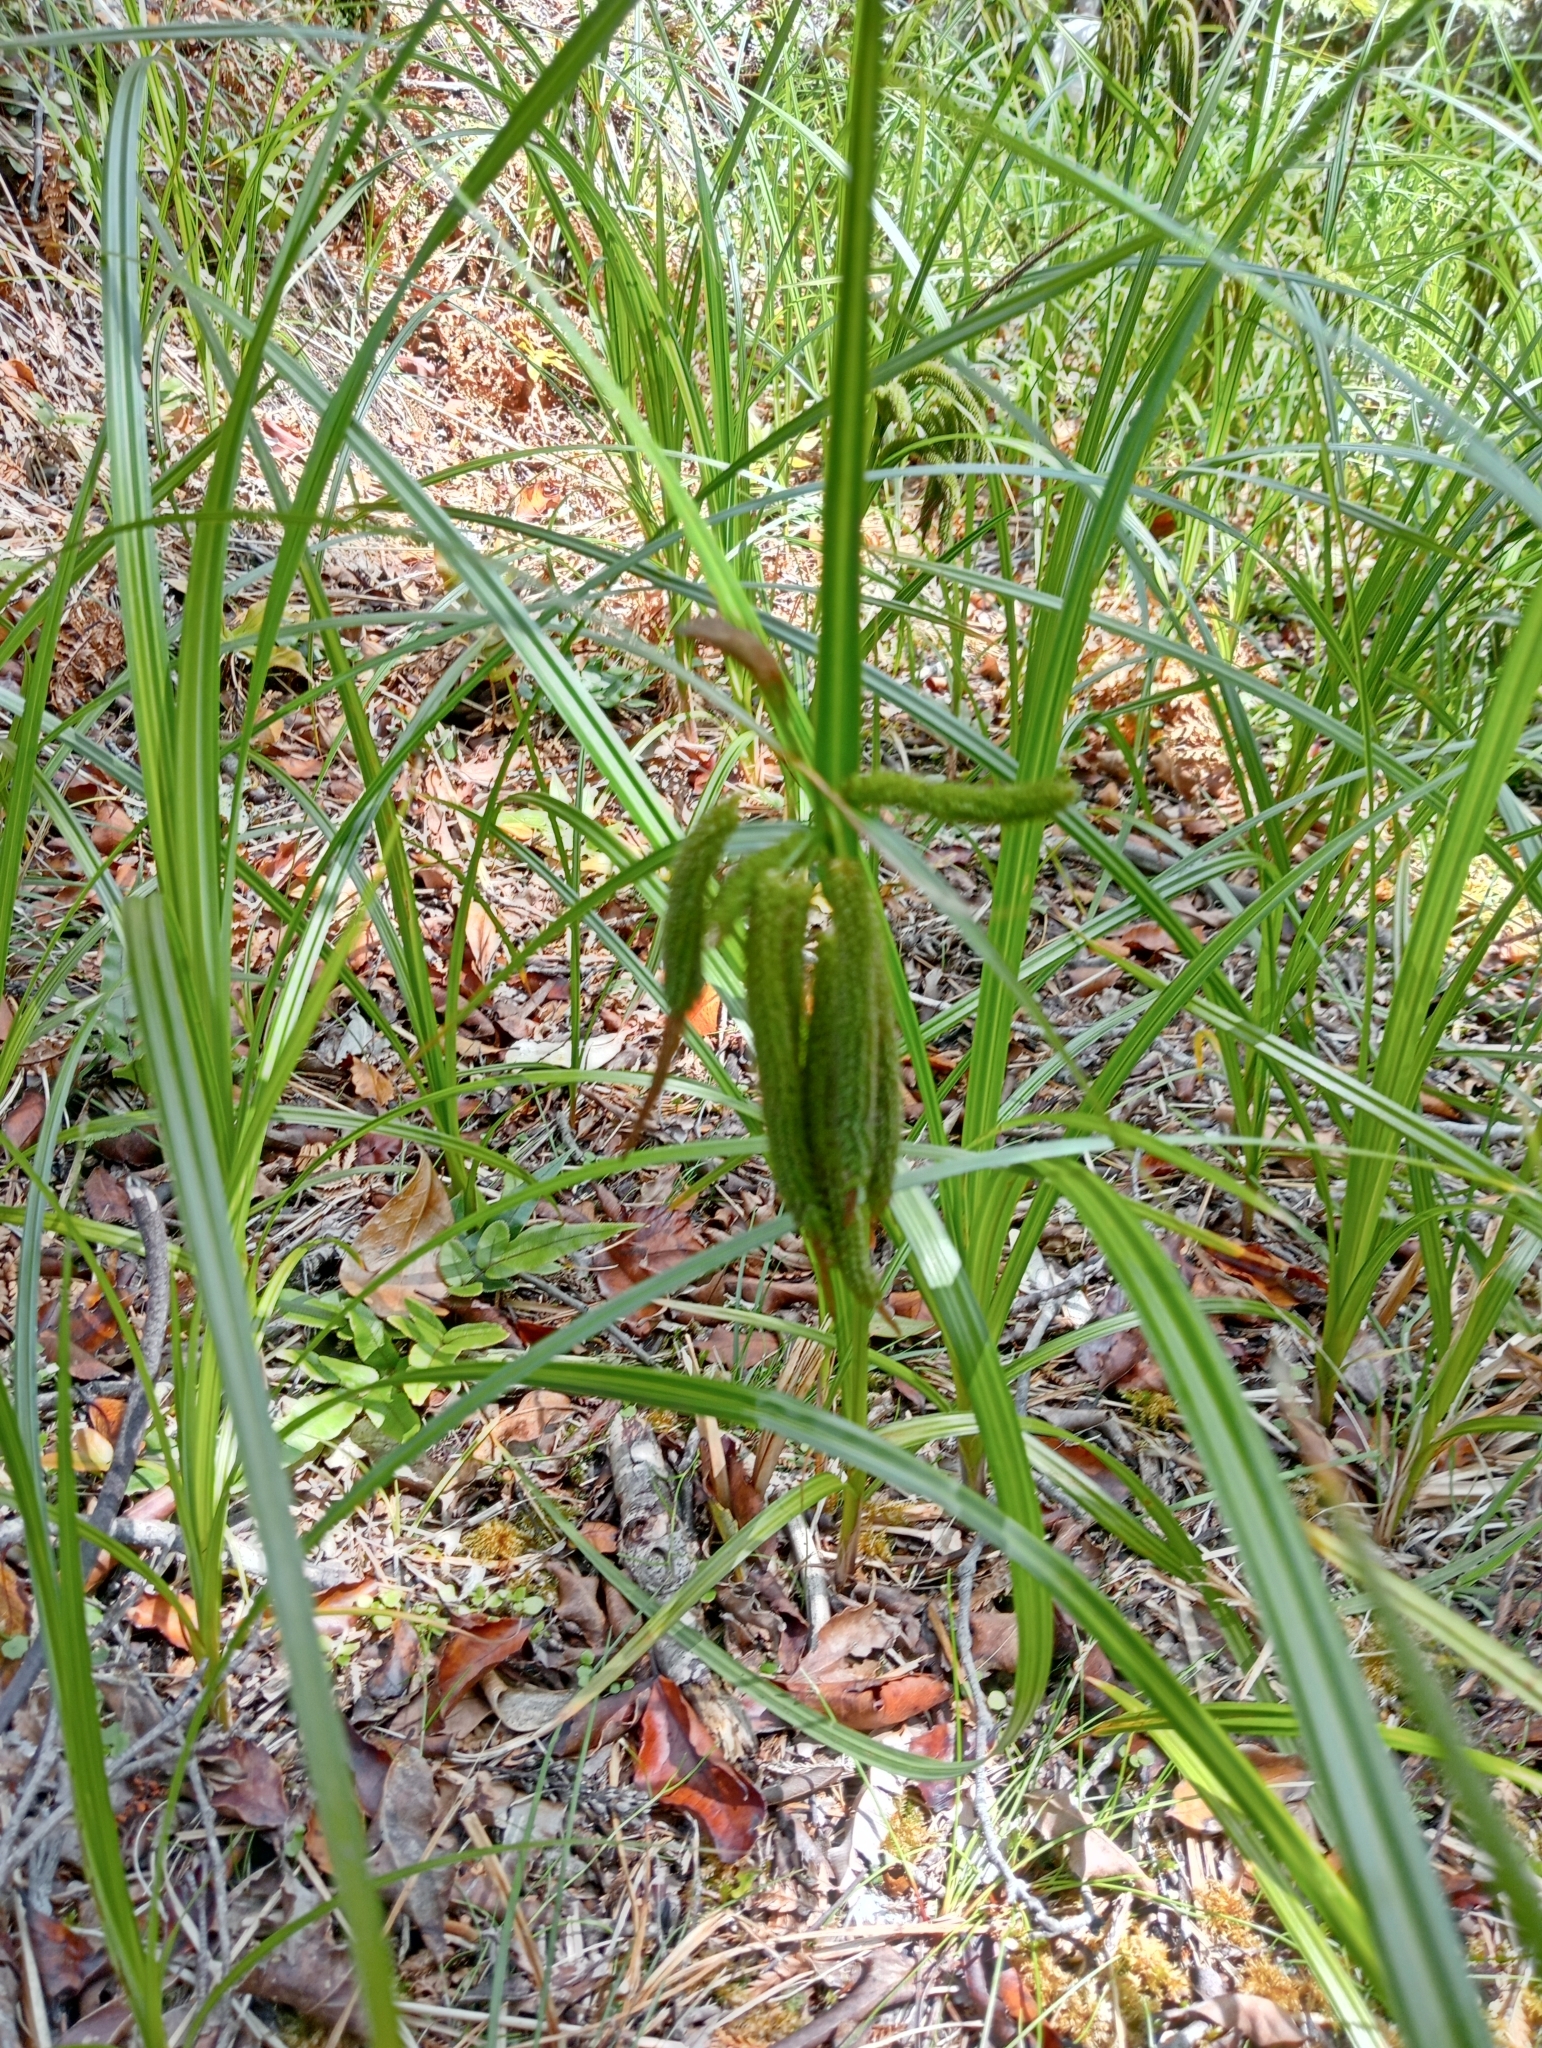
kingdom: Plantae
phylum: Tracheophyta
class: Liliopsida
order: Poales
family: Cyperaceae
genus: Carex
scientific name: Carex geminata
